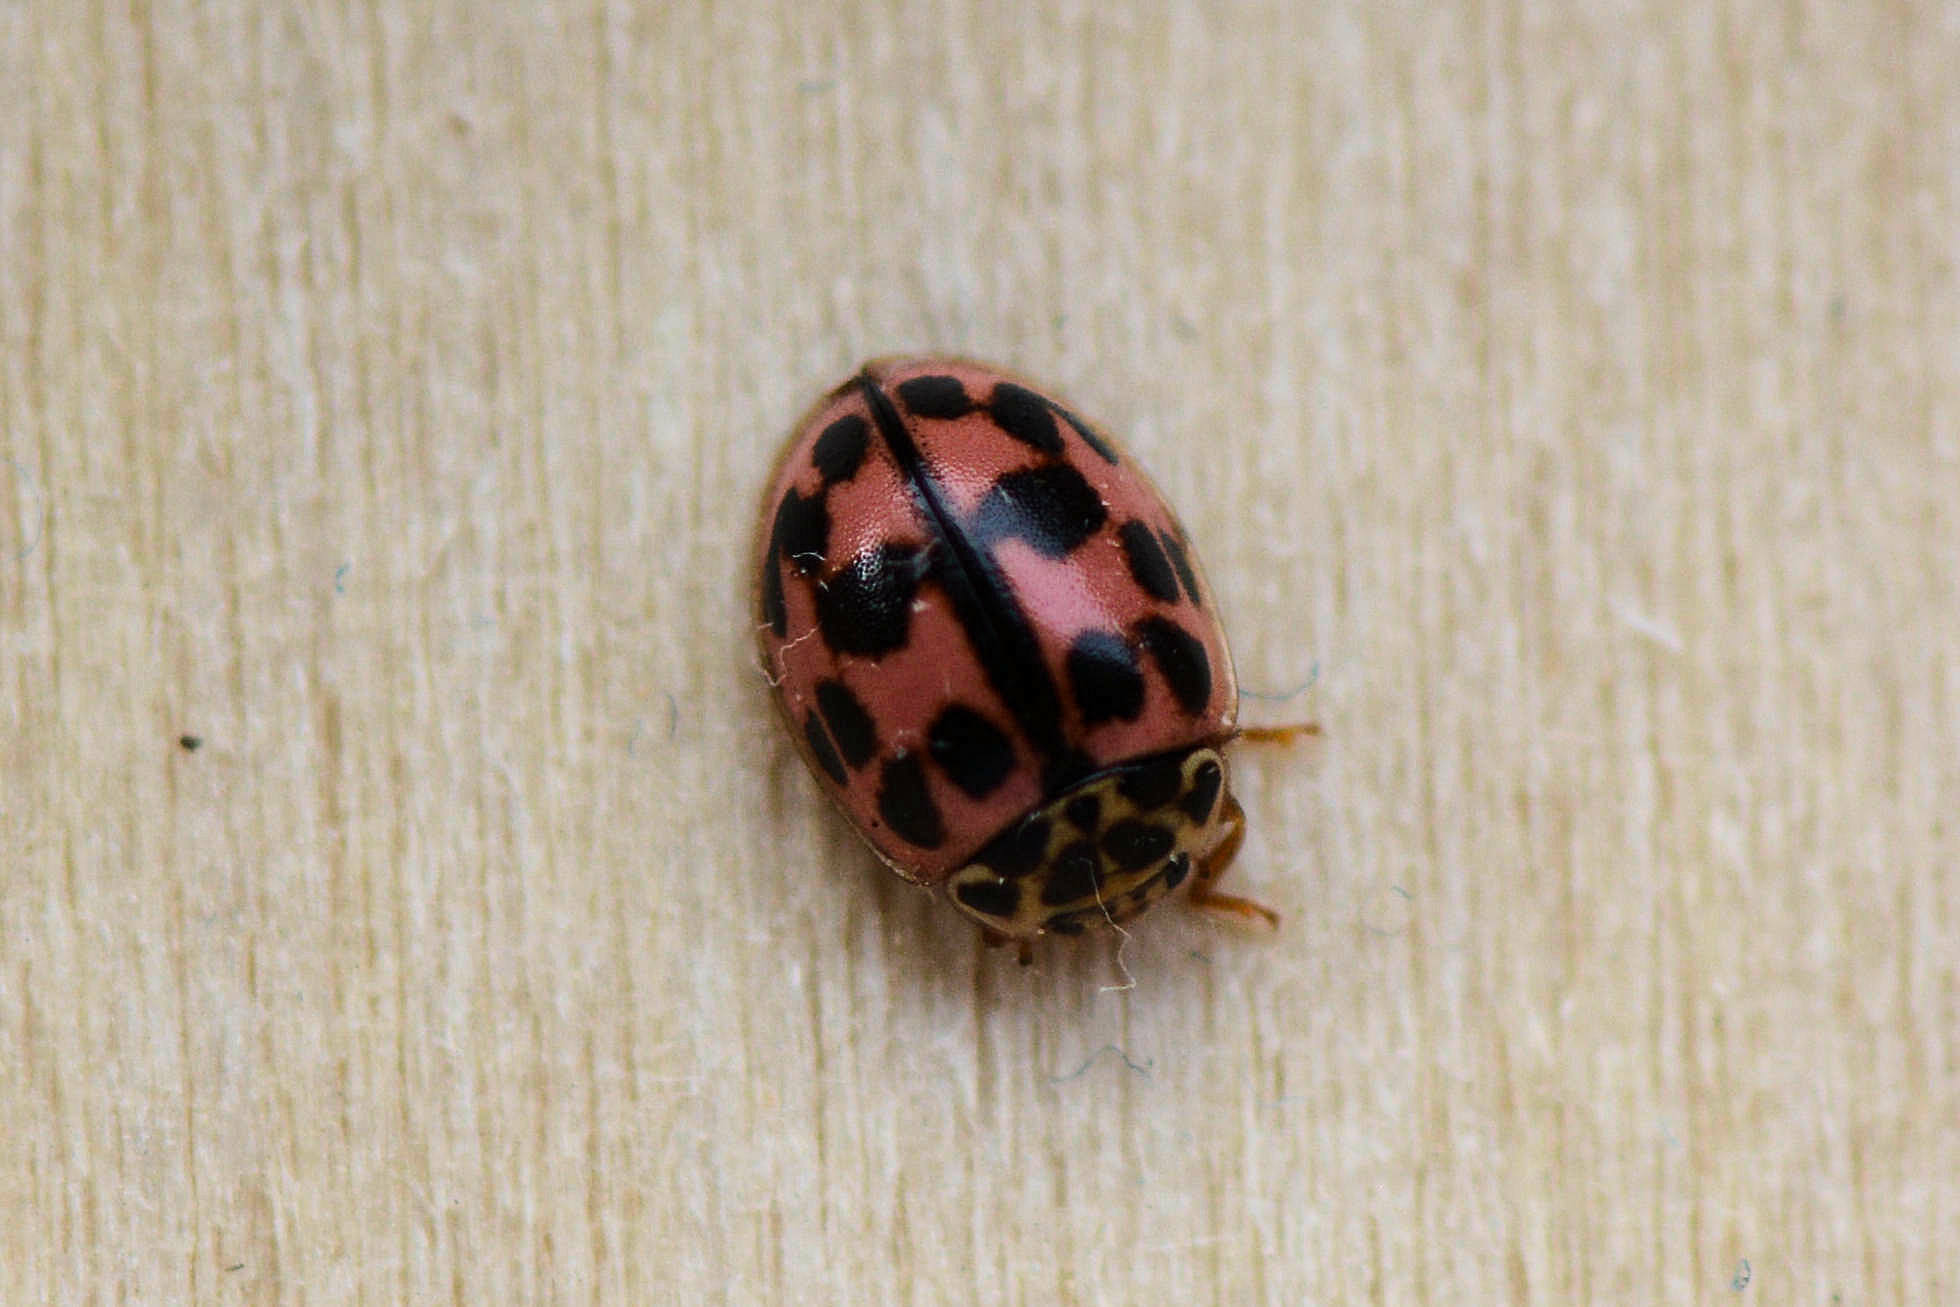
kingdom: Animalia
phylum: Arthropoda
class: Insecta
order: Coleoptera
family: Coccinellidae
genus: Oenopia
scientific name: Oenopia conglobata
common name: Ladybird beetle
